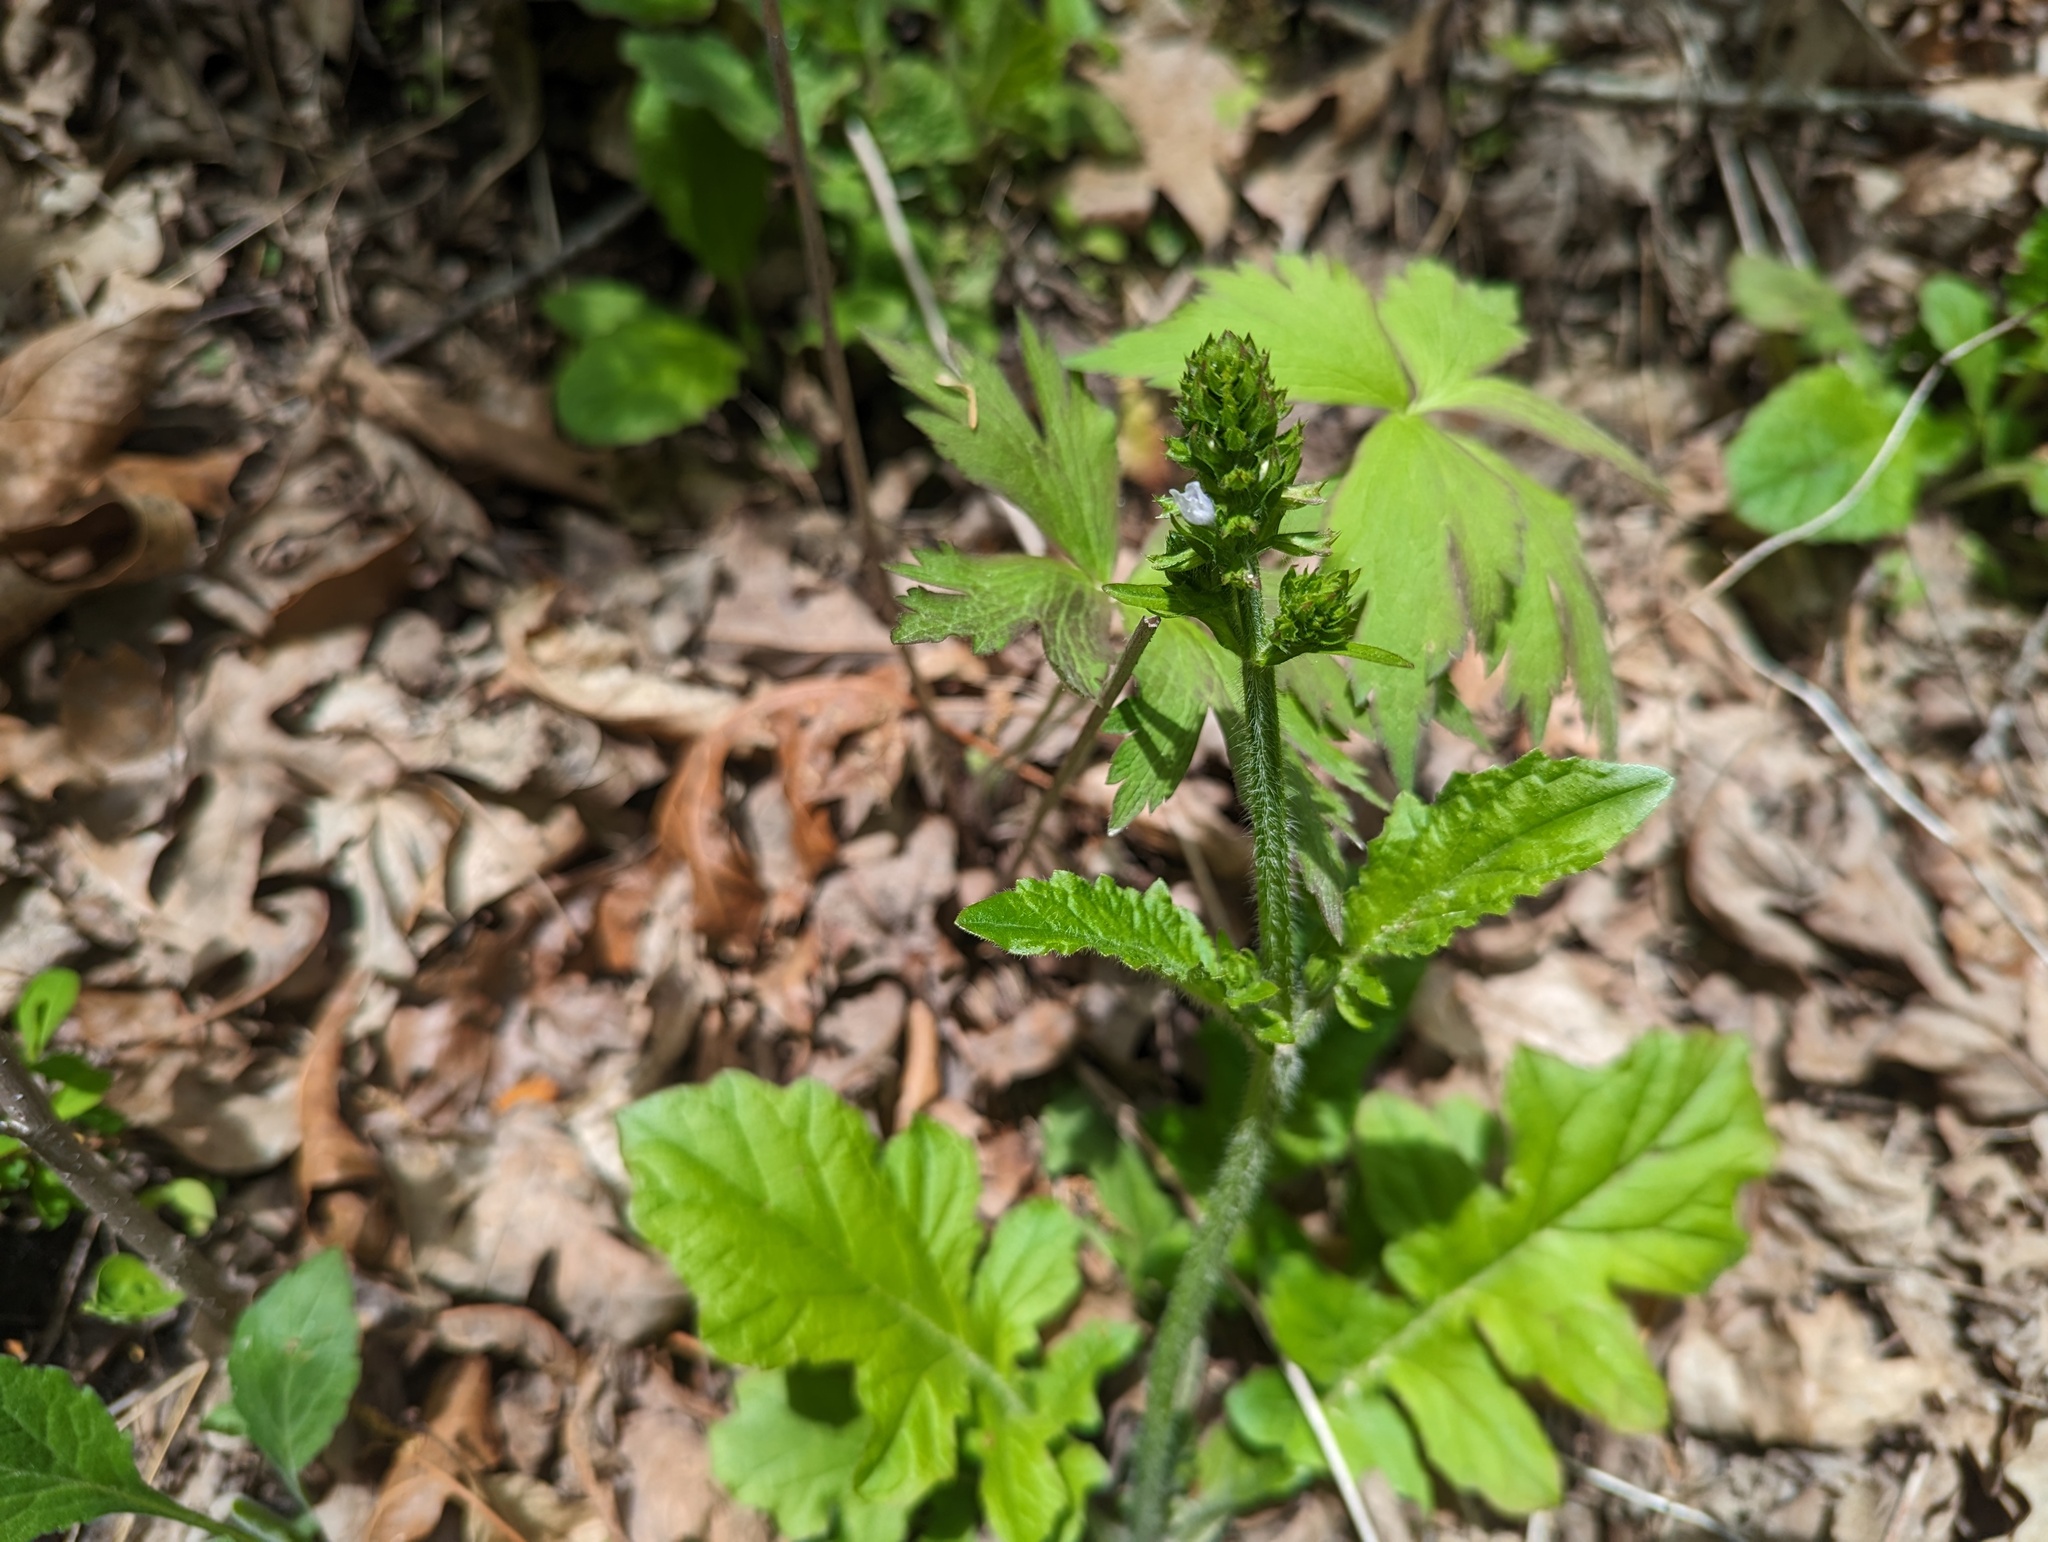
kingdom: Plantae
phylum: Tracheophyta
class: Magnoliopsida
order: Lamiales
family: Lamiaceae
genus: Salvia
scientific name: Salvia lyrata
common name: Cancerweed
